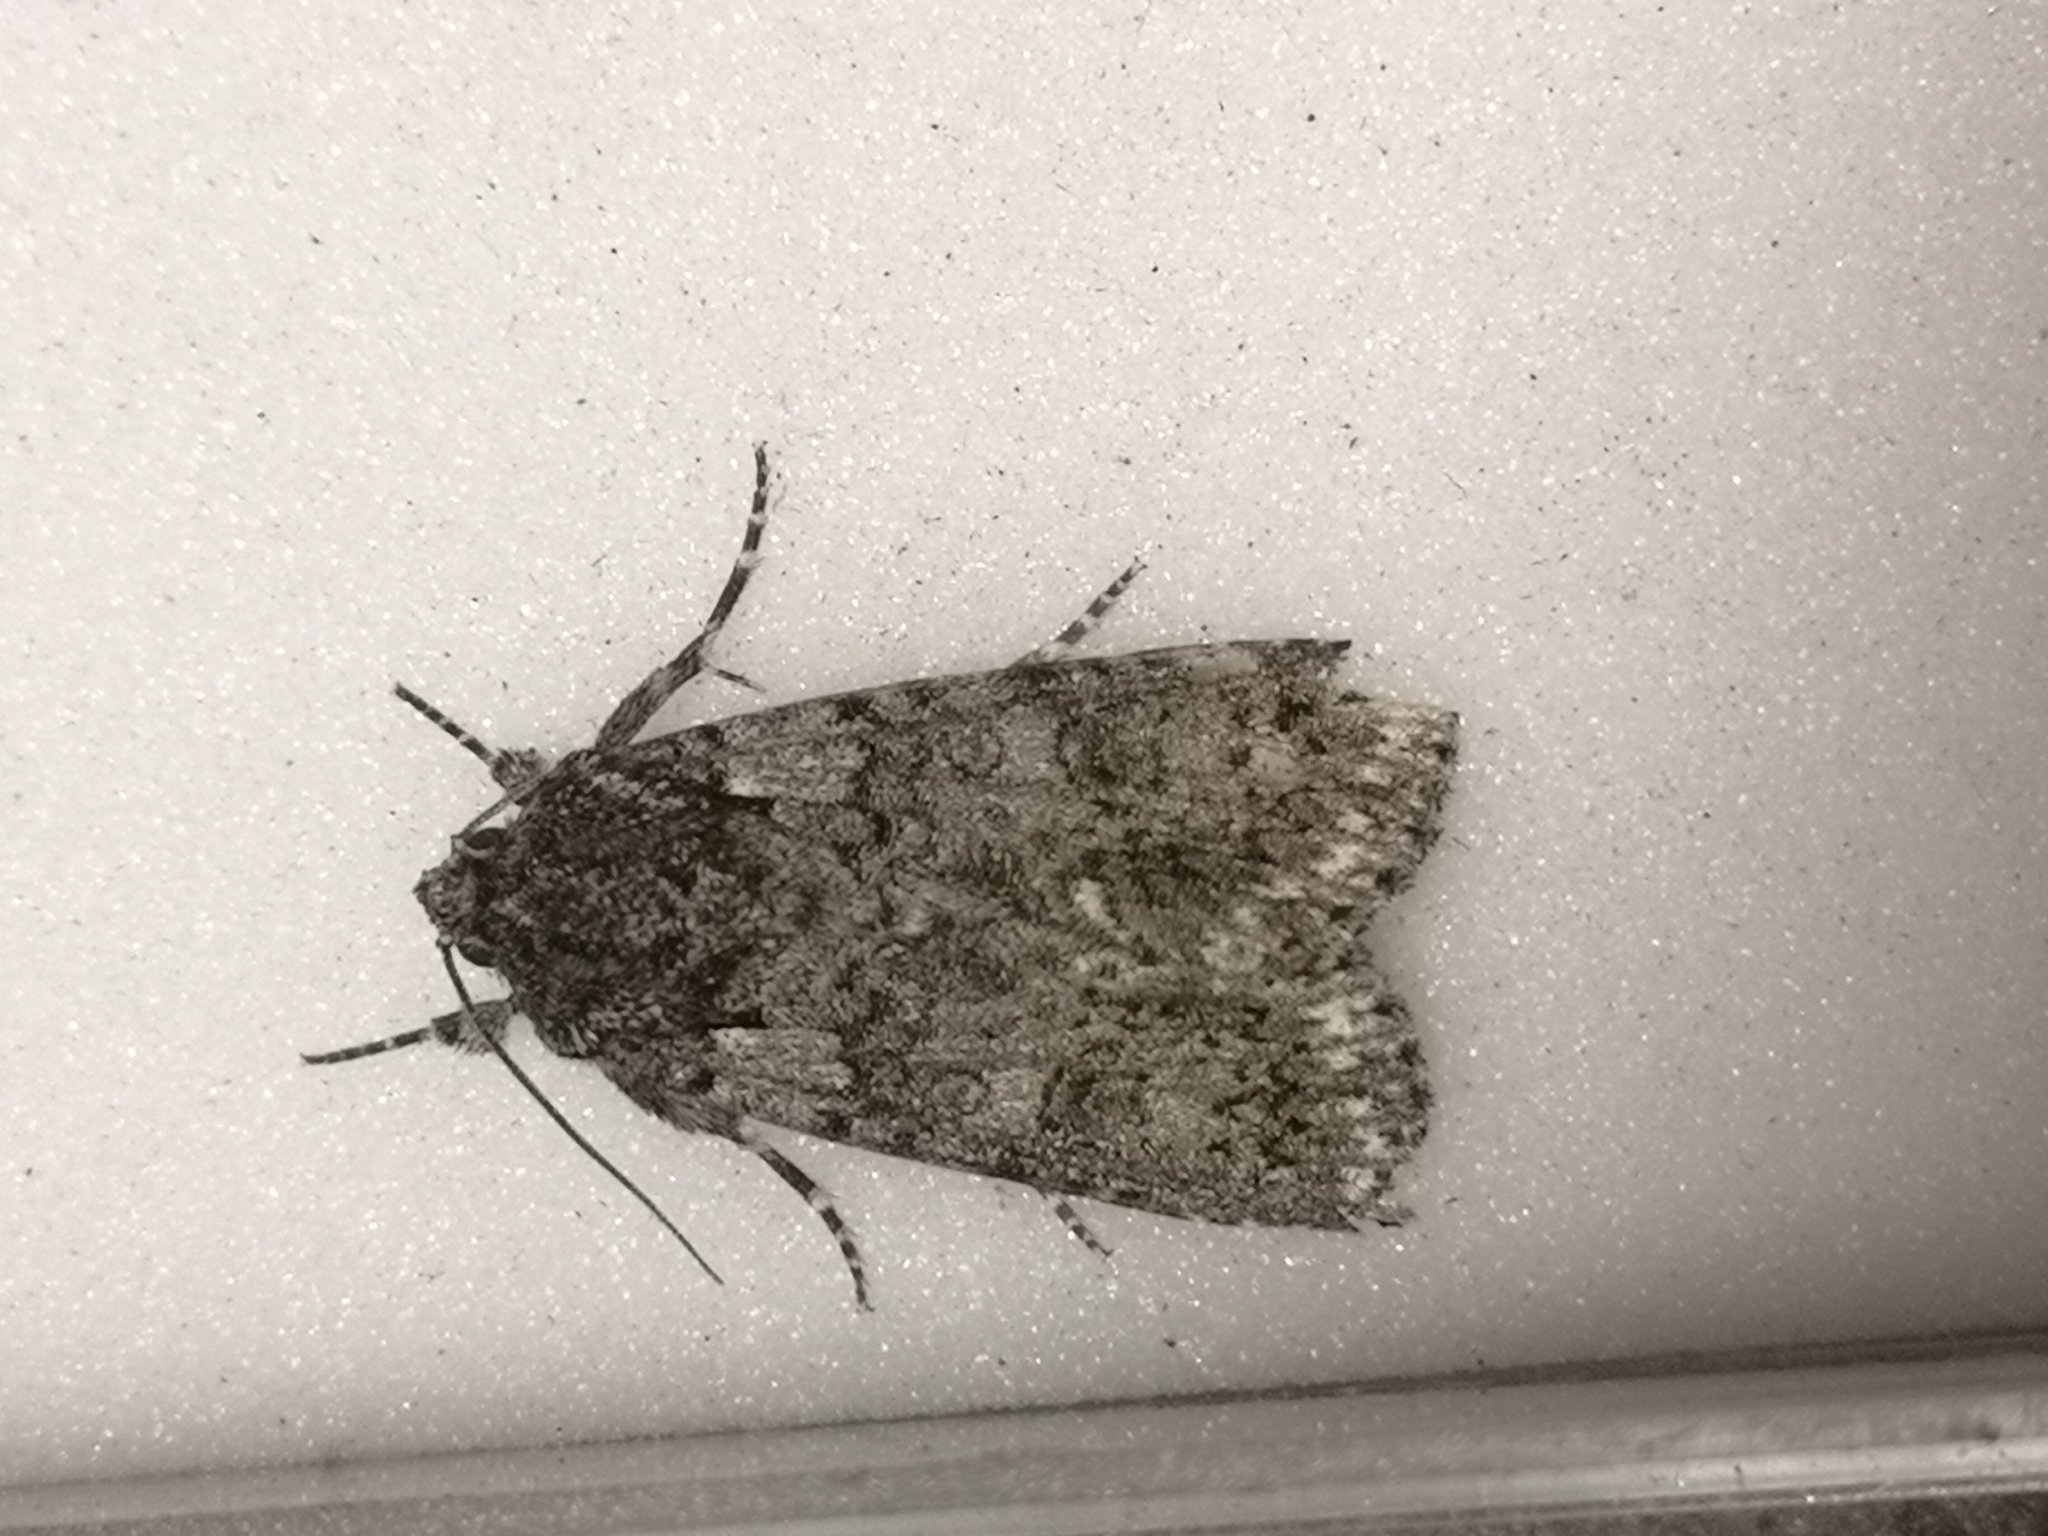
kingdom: Animalia
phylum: Arthropoda
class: Insecta
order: Lepidoptera
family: Noctuidae
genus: Acronicta
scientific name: Acronicta rumicis
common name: Knot grass
